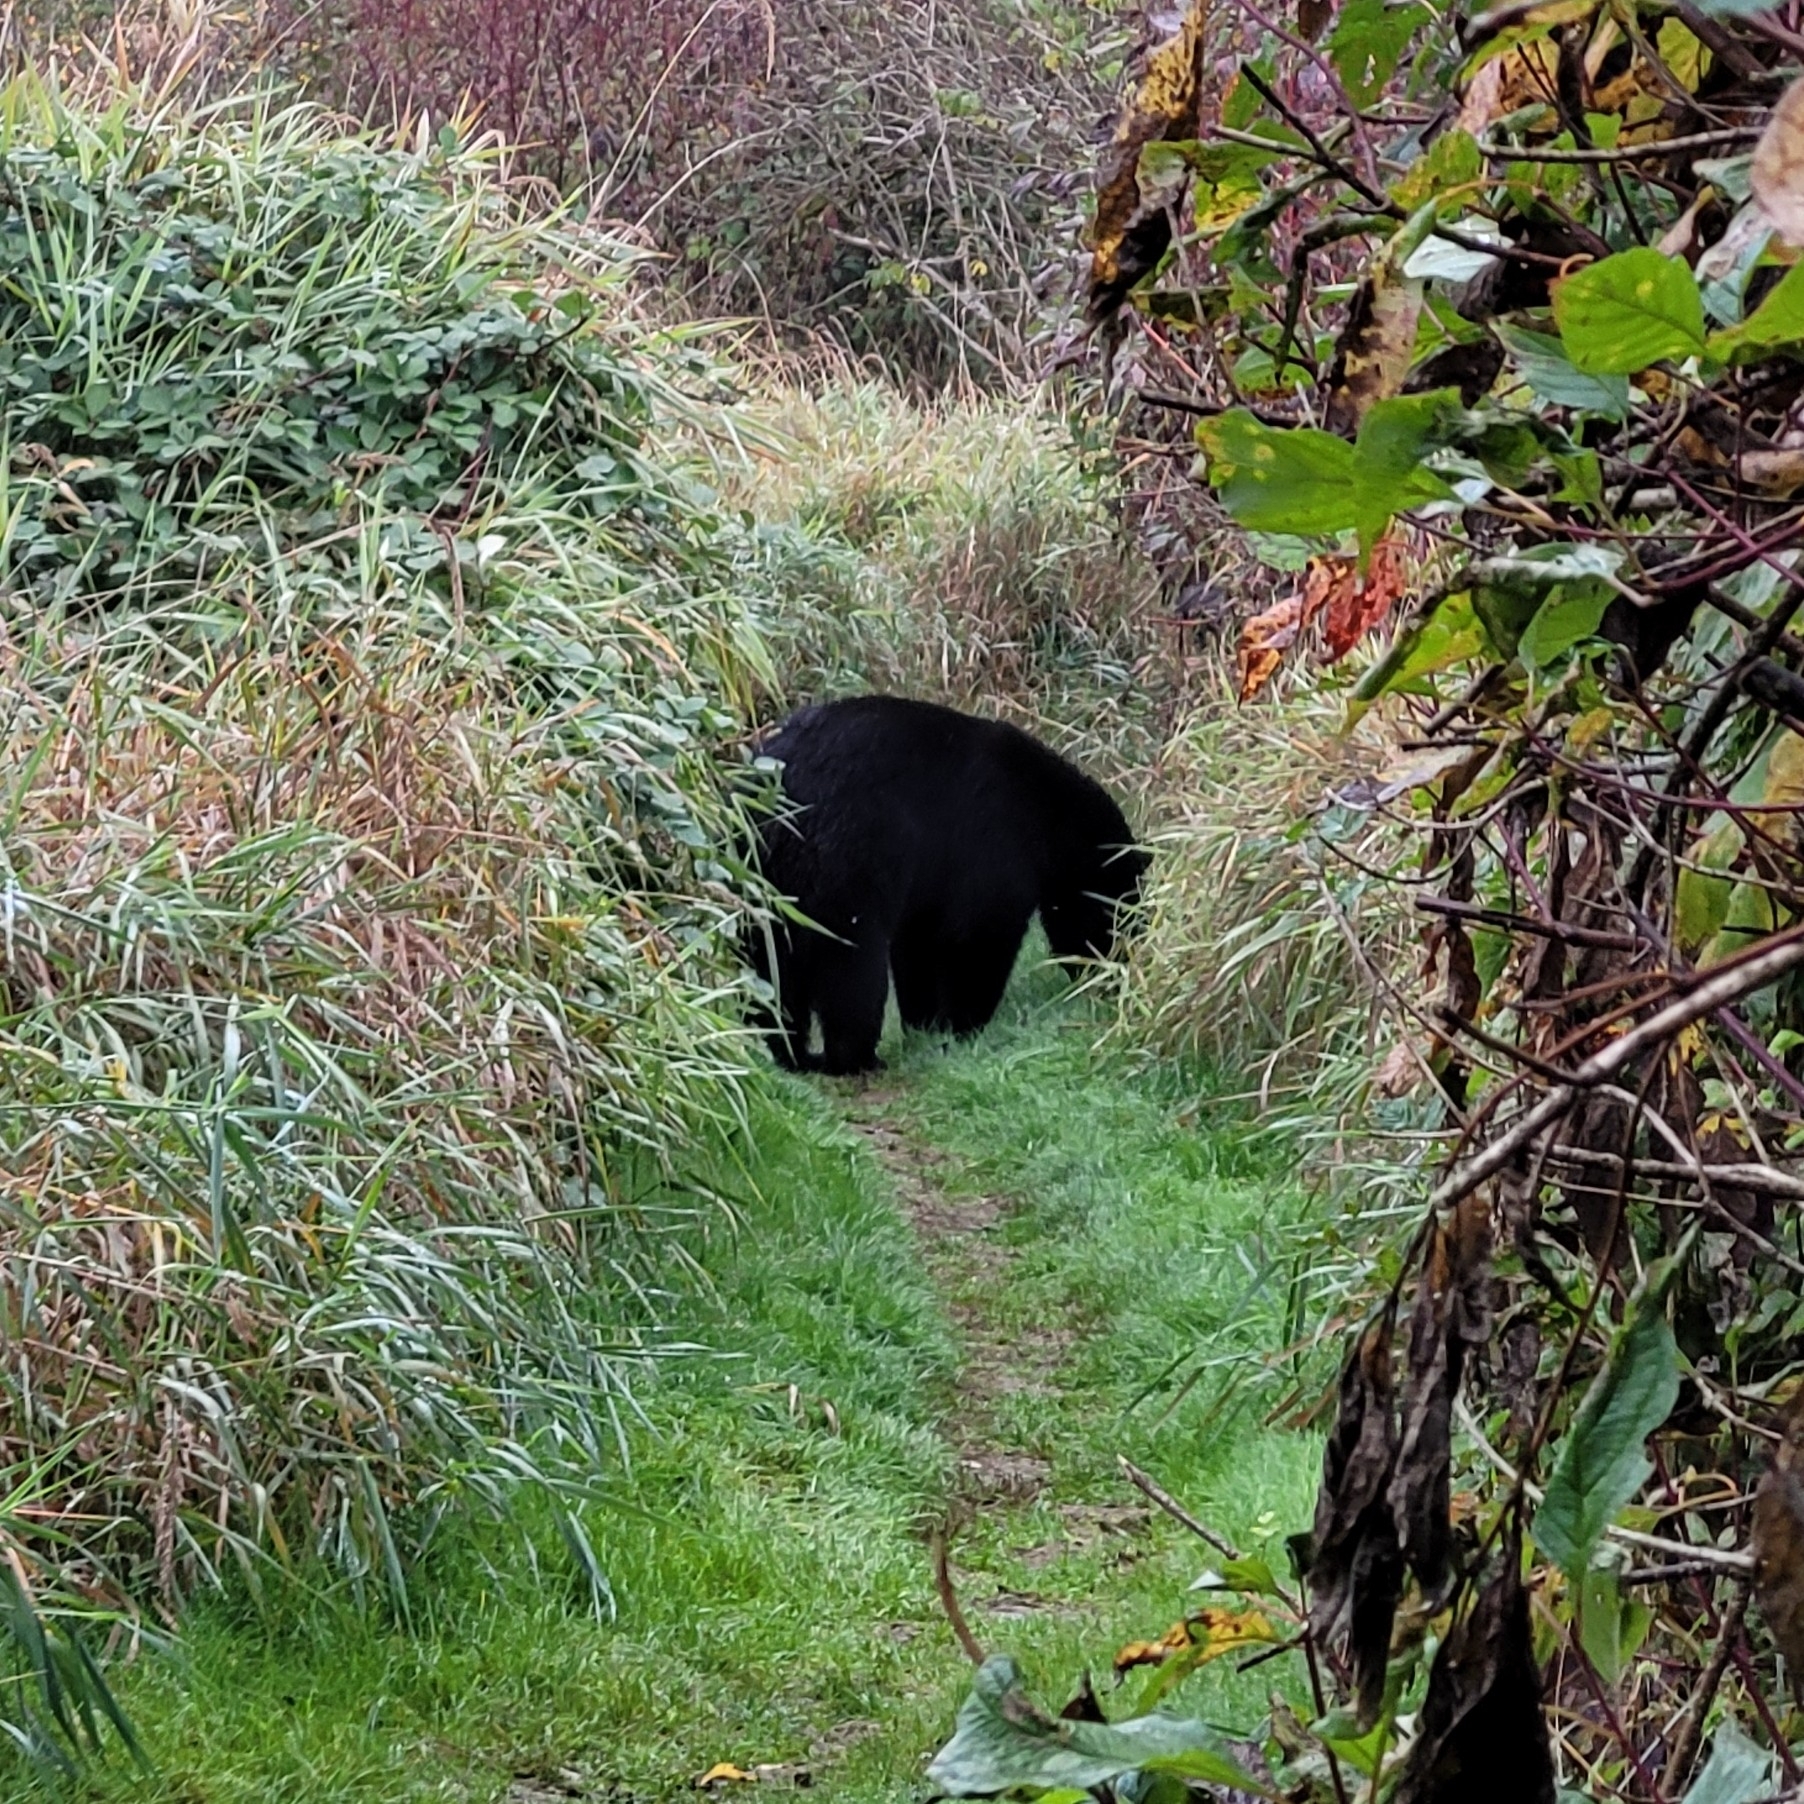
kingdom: Animalia
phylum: Chordata
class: Mammalia
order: Carnivora
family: Ursidae
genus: Ursus
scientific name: Ursus americanus
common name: American black bear
